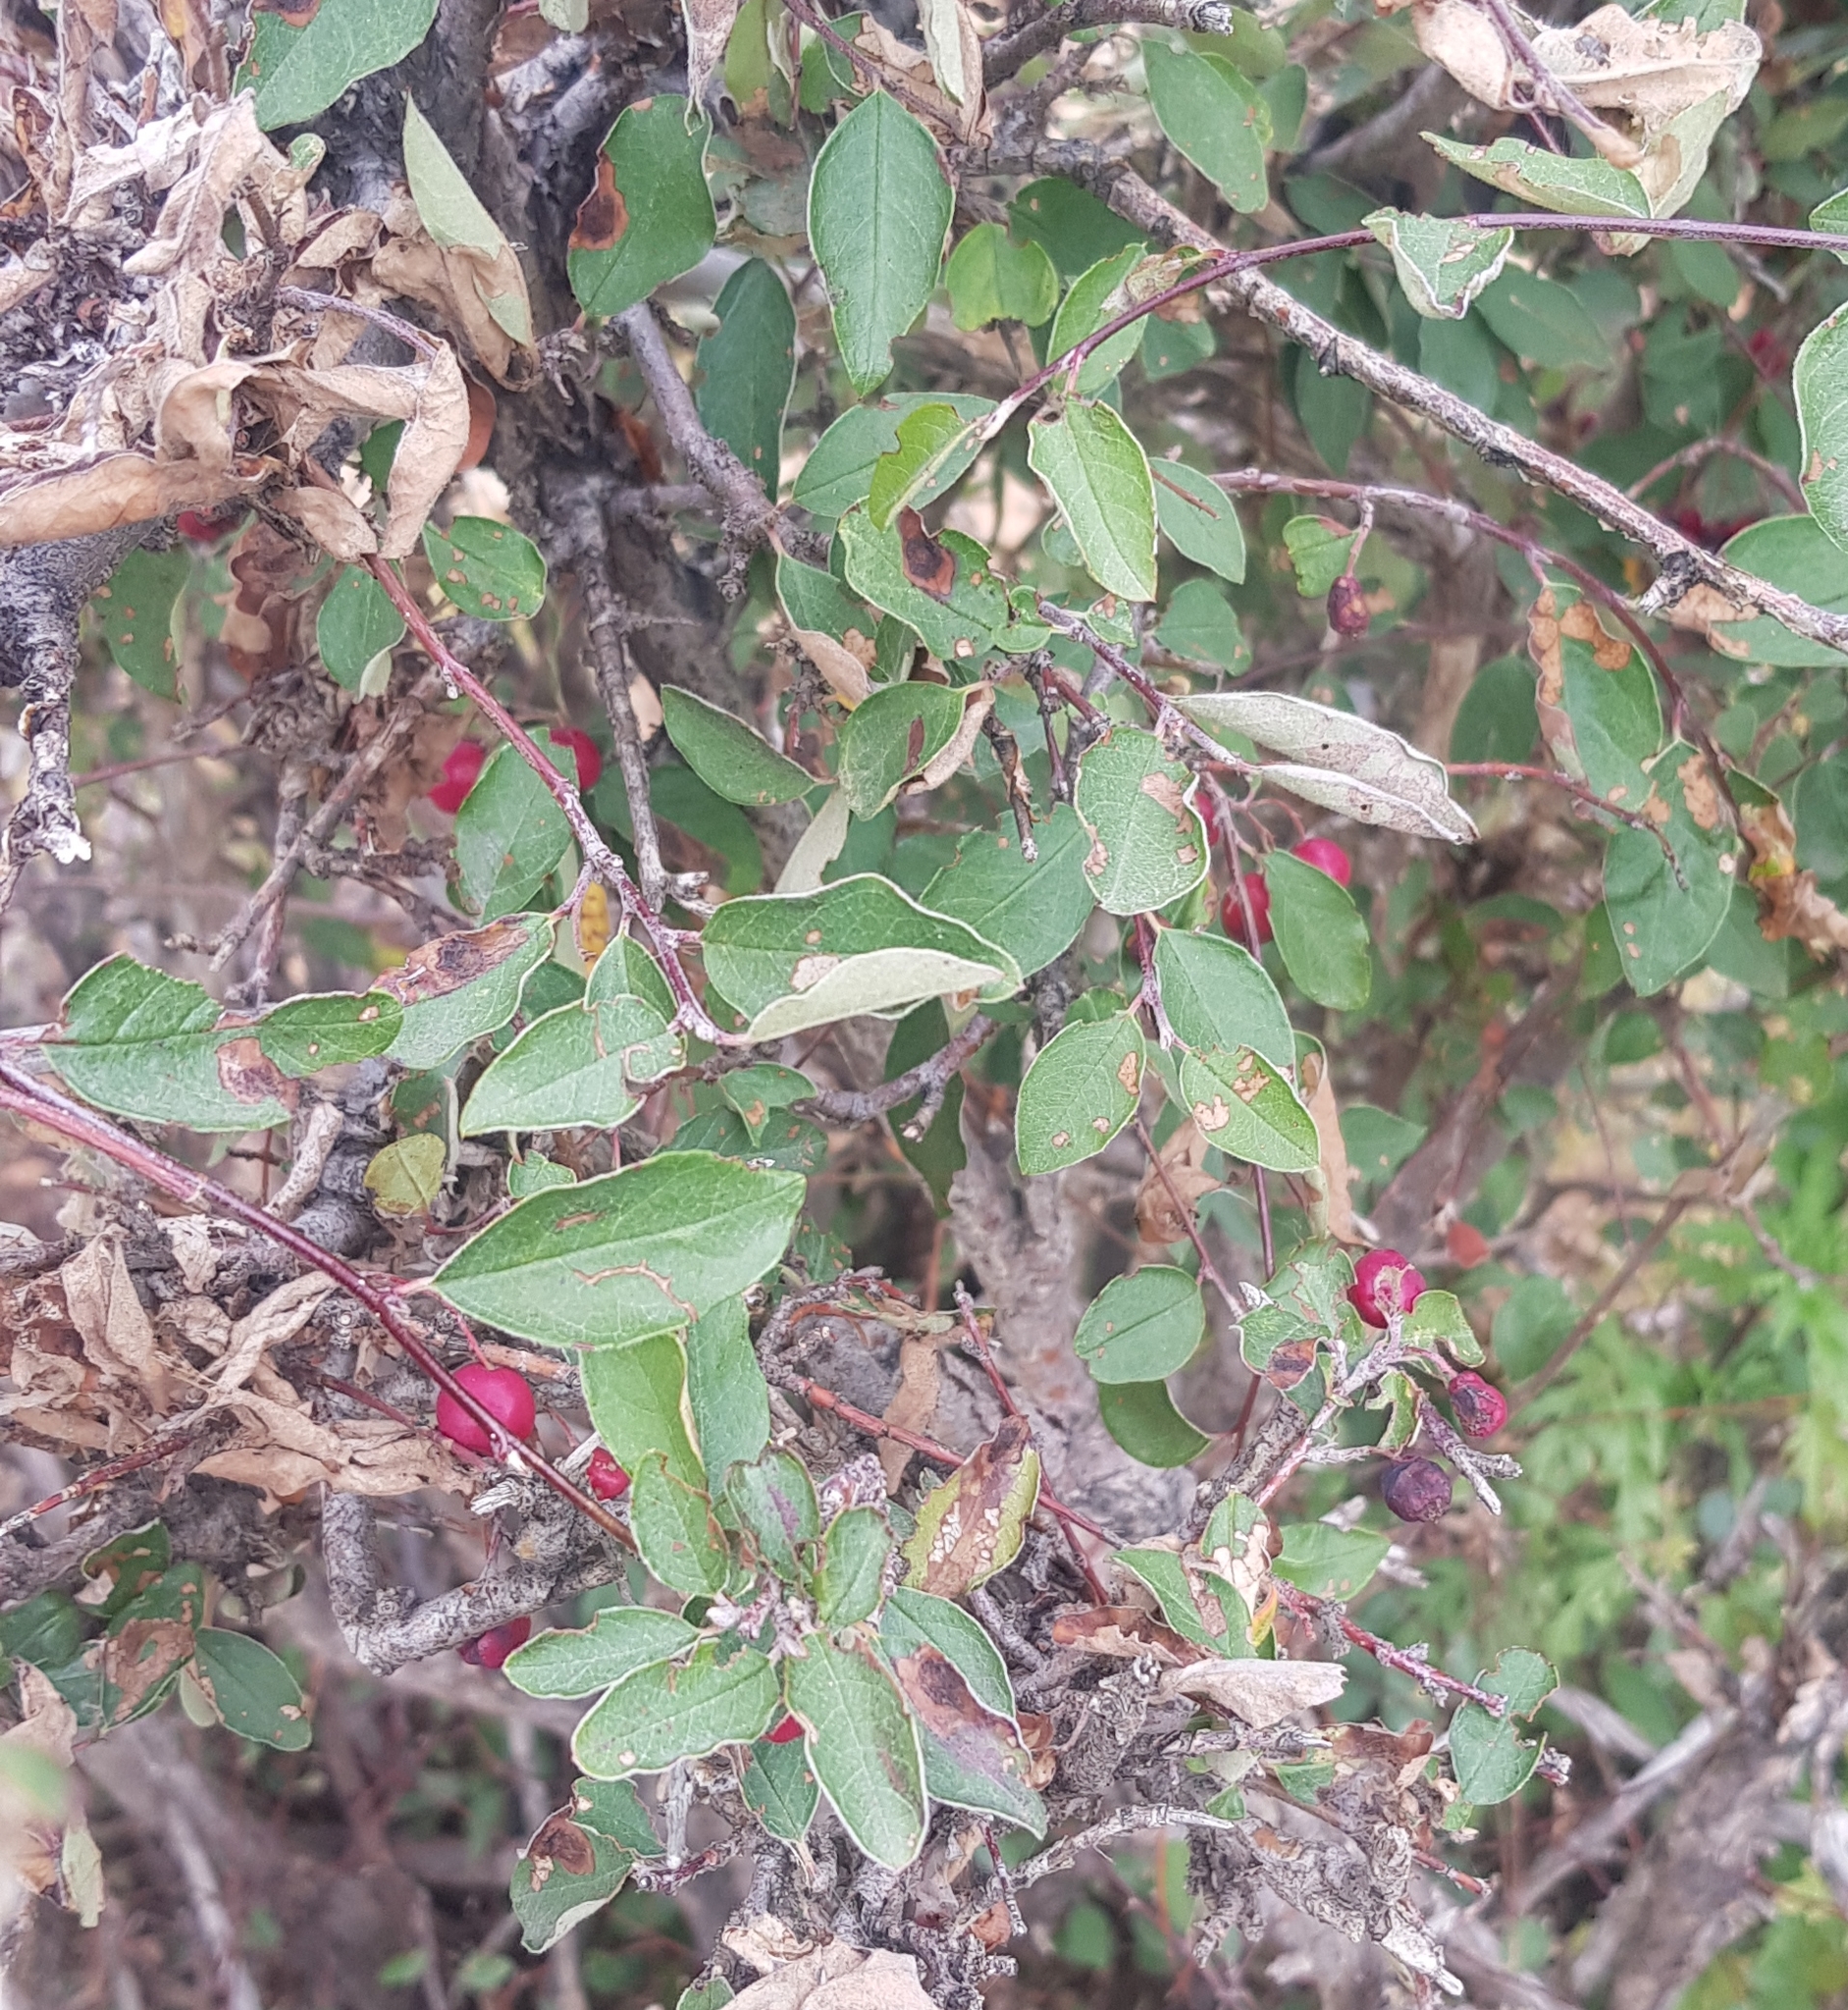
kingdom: Plantae
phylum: Tracheophyta
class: Magnoliopsida
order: Rosales
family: Rosaceae
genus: Cotoneaster
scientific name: Cotoneaster melanocarpus
